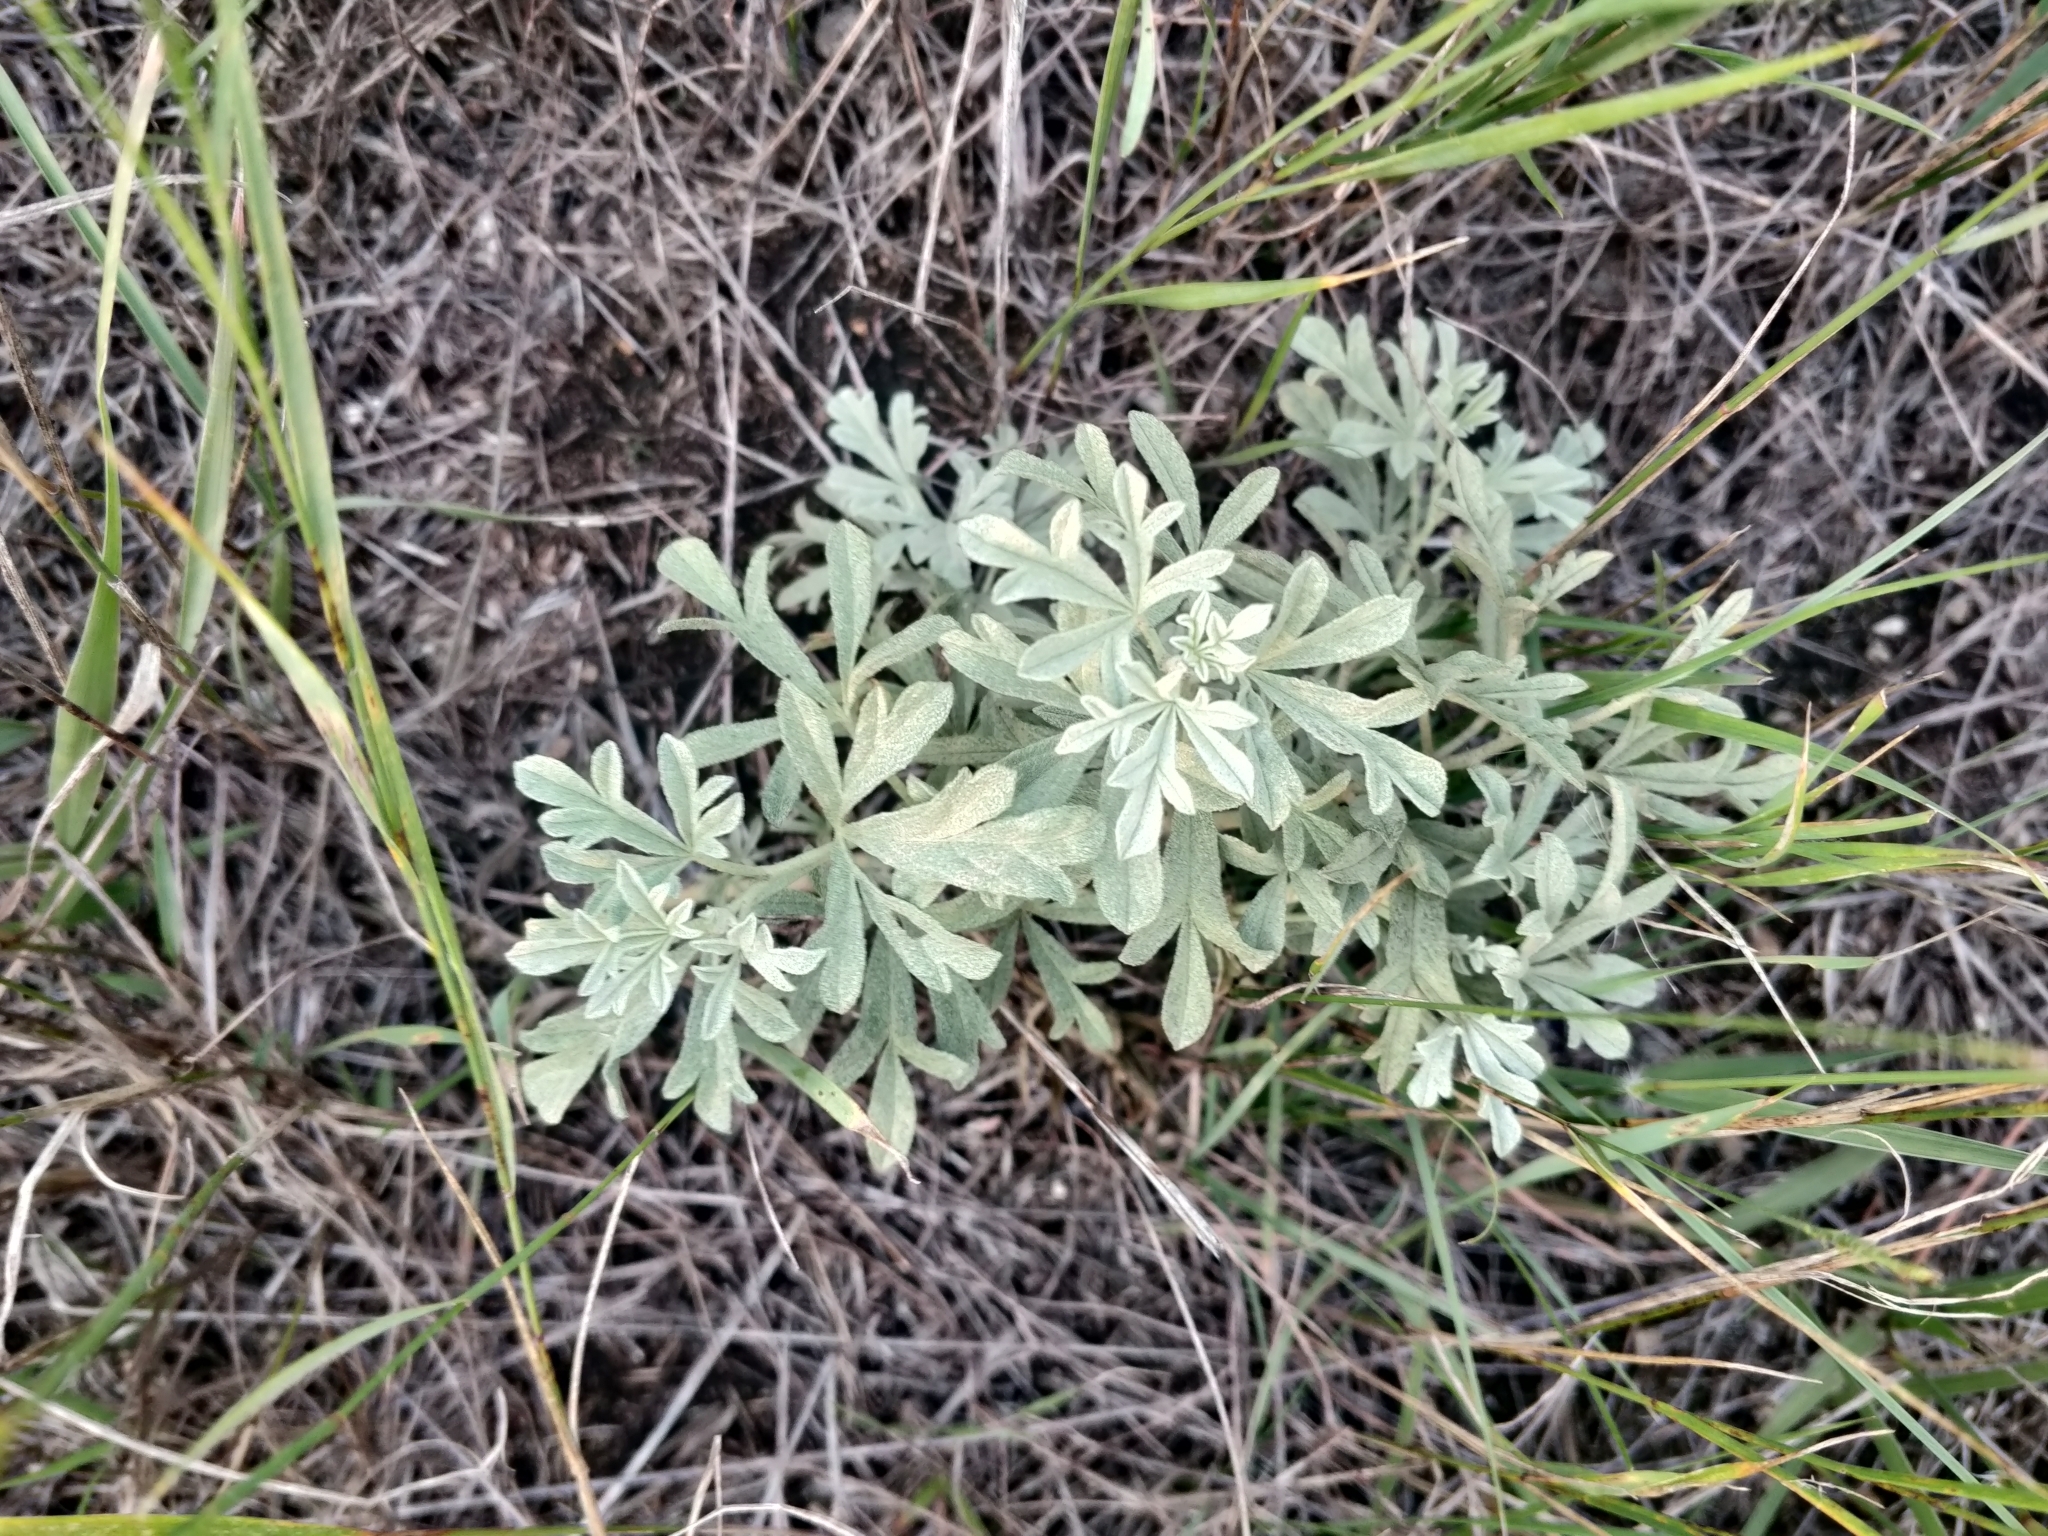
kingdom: Plantae
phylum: Tracheophyta
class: Magnoliopsida
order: Malvales
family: Malvaceae
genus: Sphaeralcea
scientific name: Sphaeralcea coccinea
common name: Moss-rose
